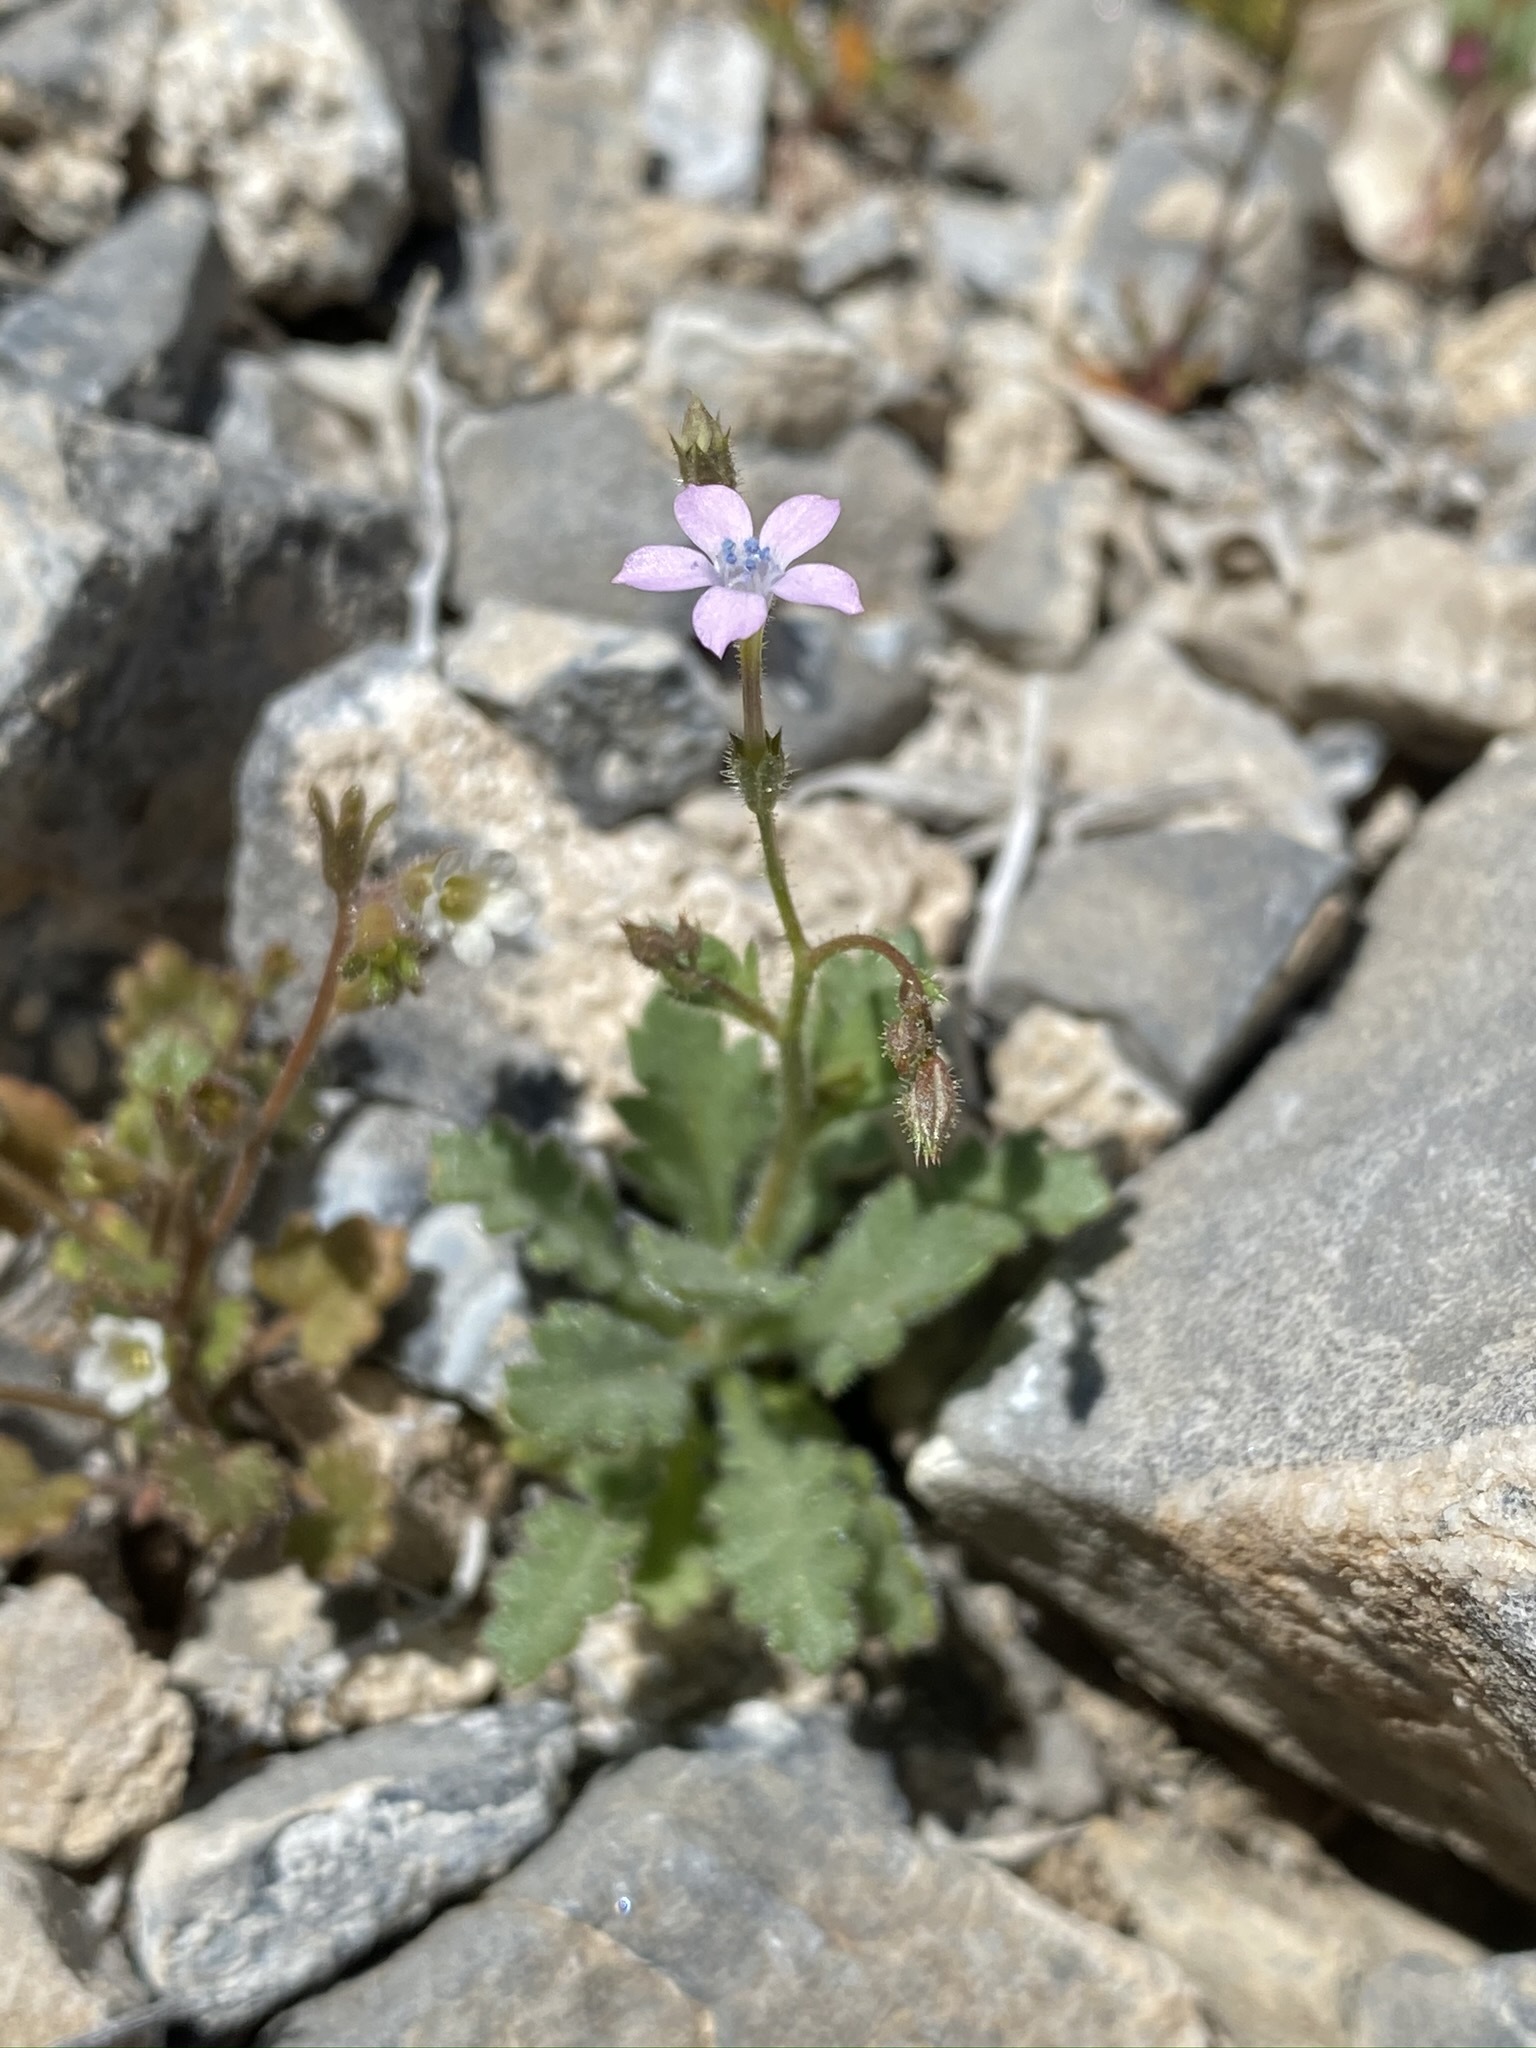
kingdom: Plantae
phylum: Tracheophyta
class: Magnoliopsida
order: Ericales
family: Polemoniaceae
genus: Gilia
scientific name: Gilia scopulorum
